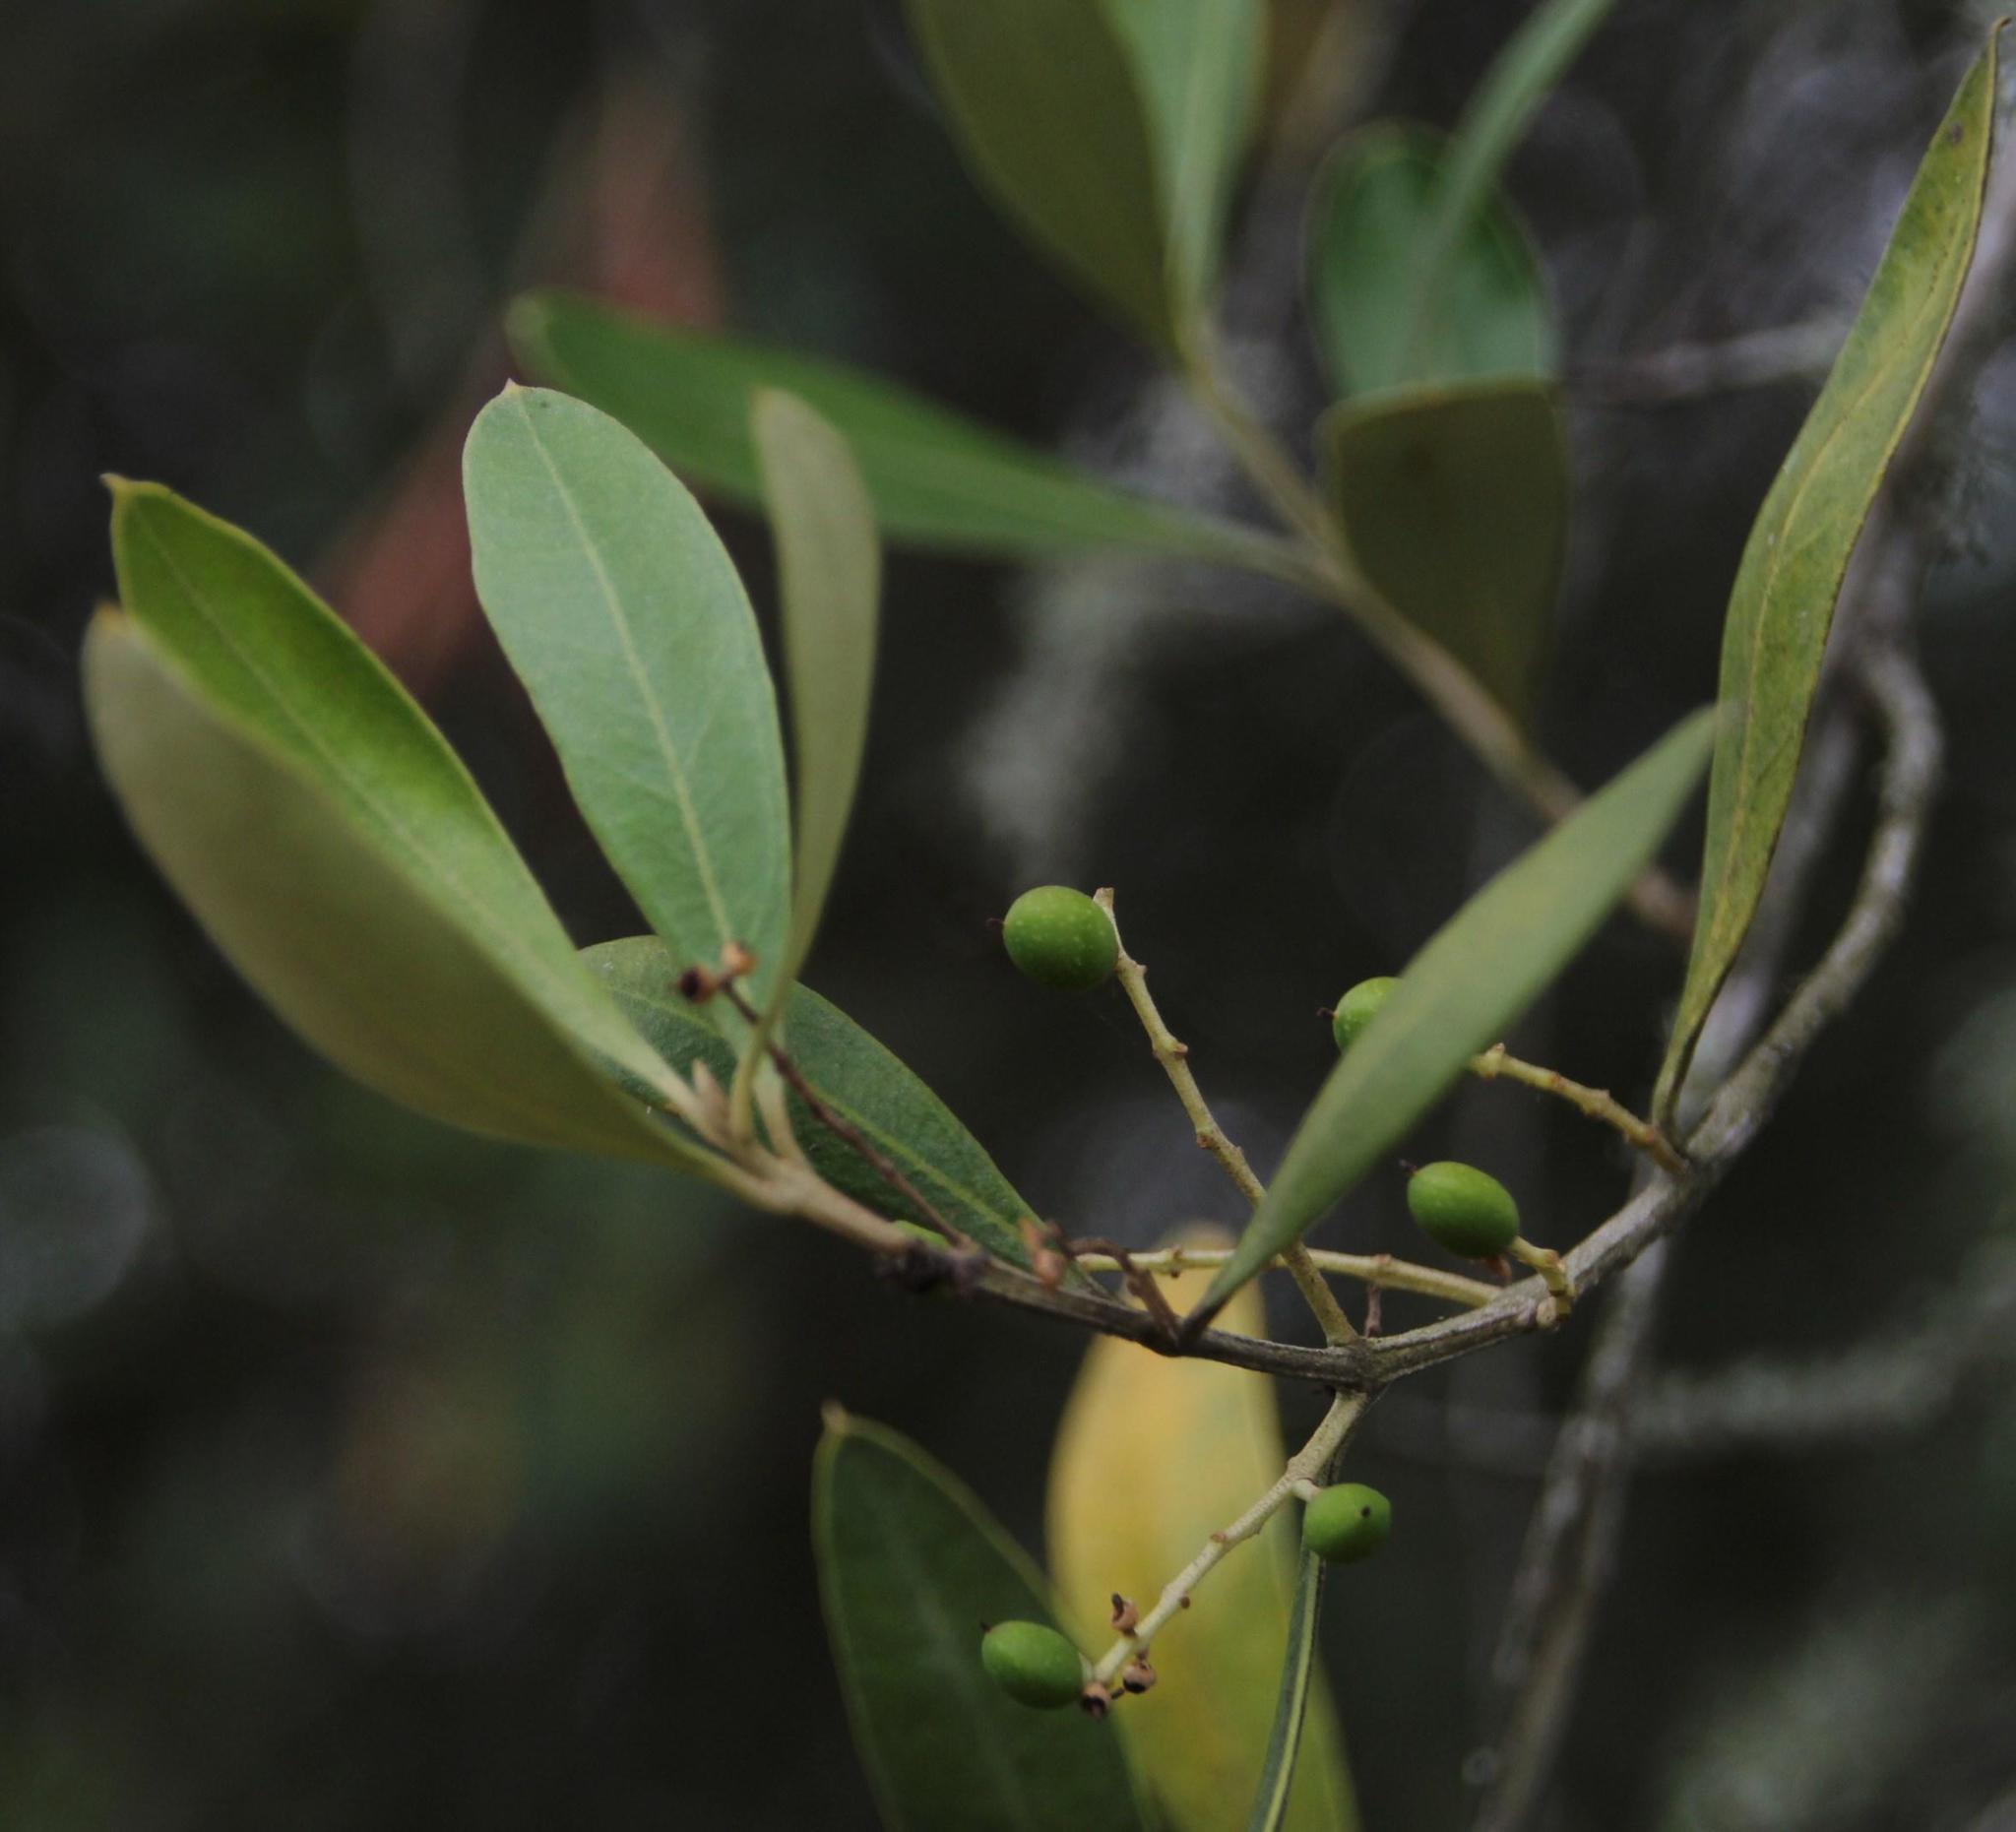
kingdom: Plantae
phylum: Tracheophyta
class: Magnoliopsida
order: Lamiales
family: Oleaceae
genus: Olea
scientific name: Olea europaea
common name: Olive
